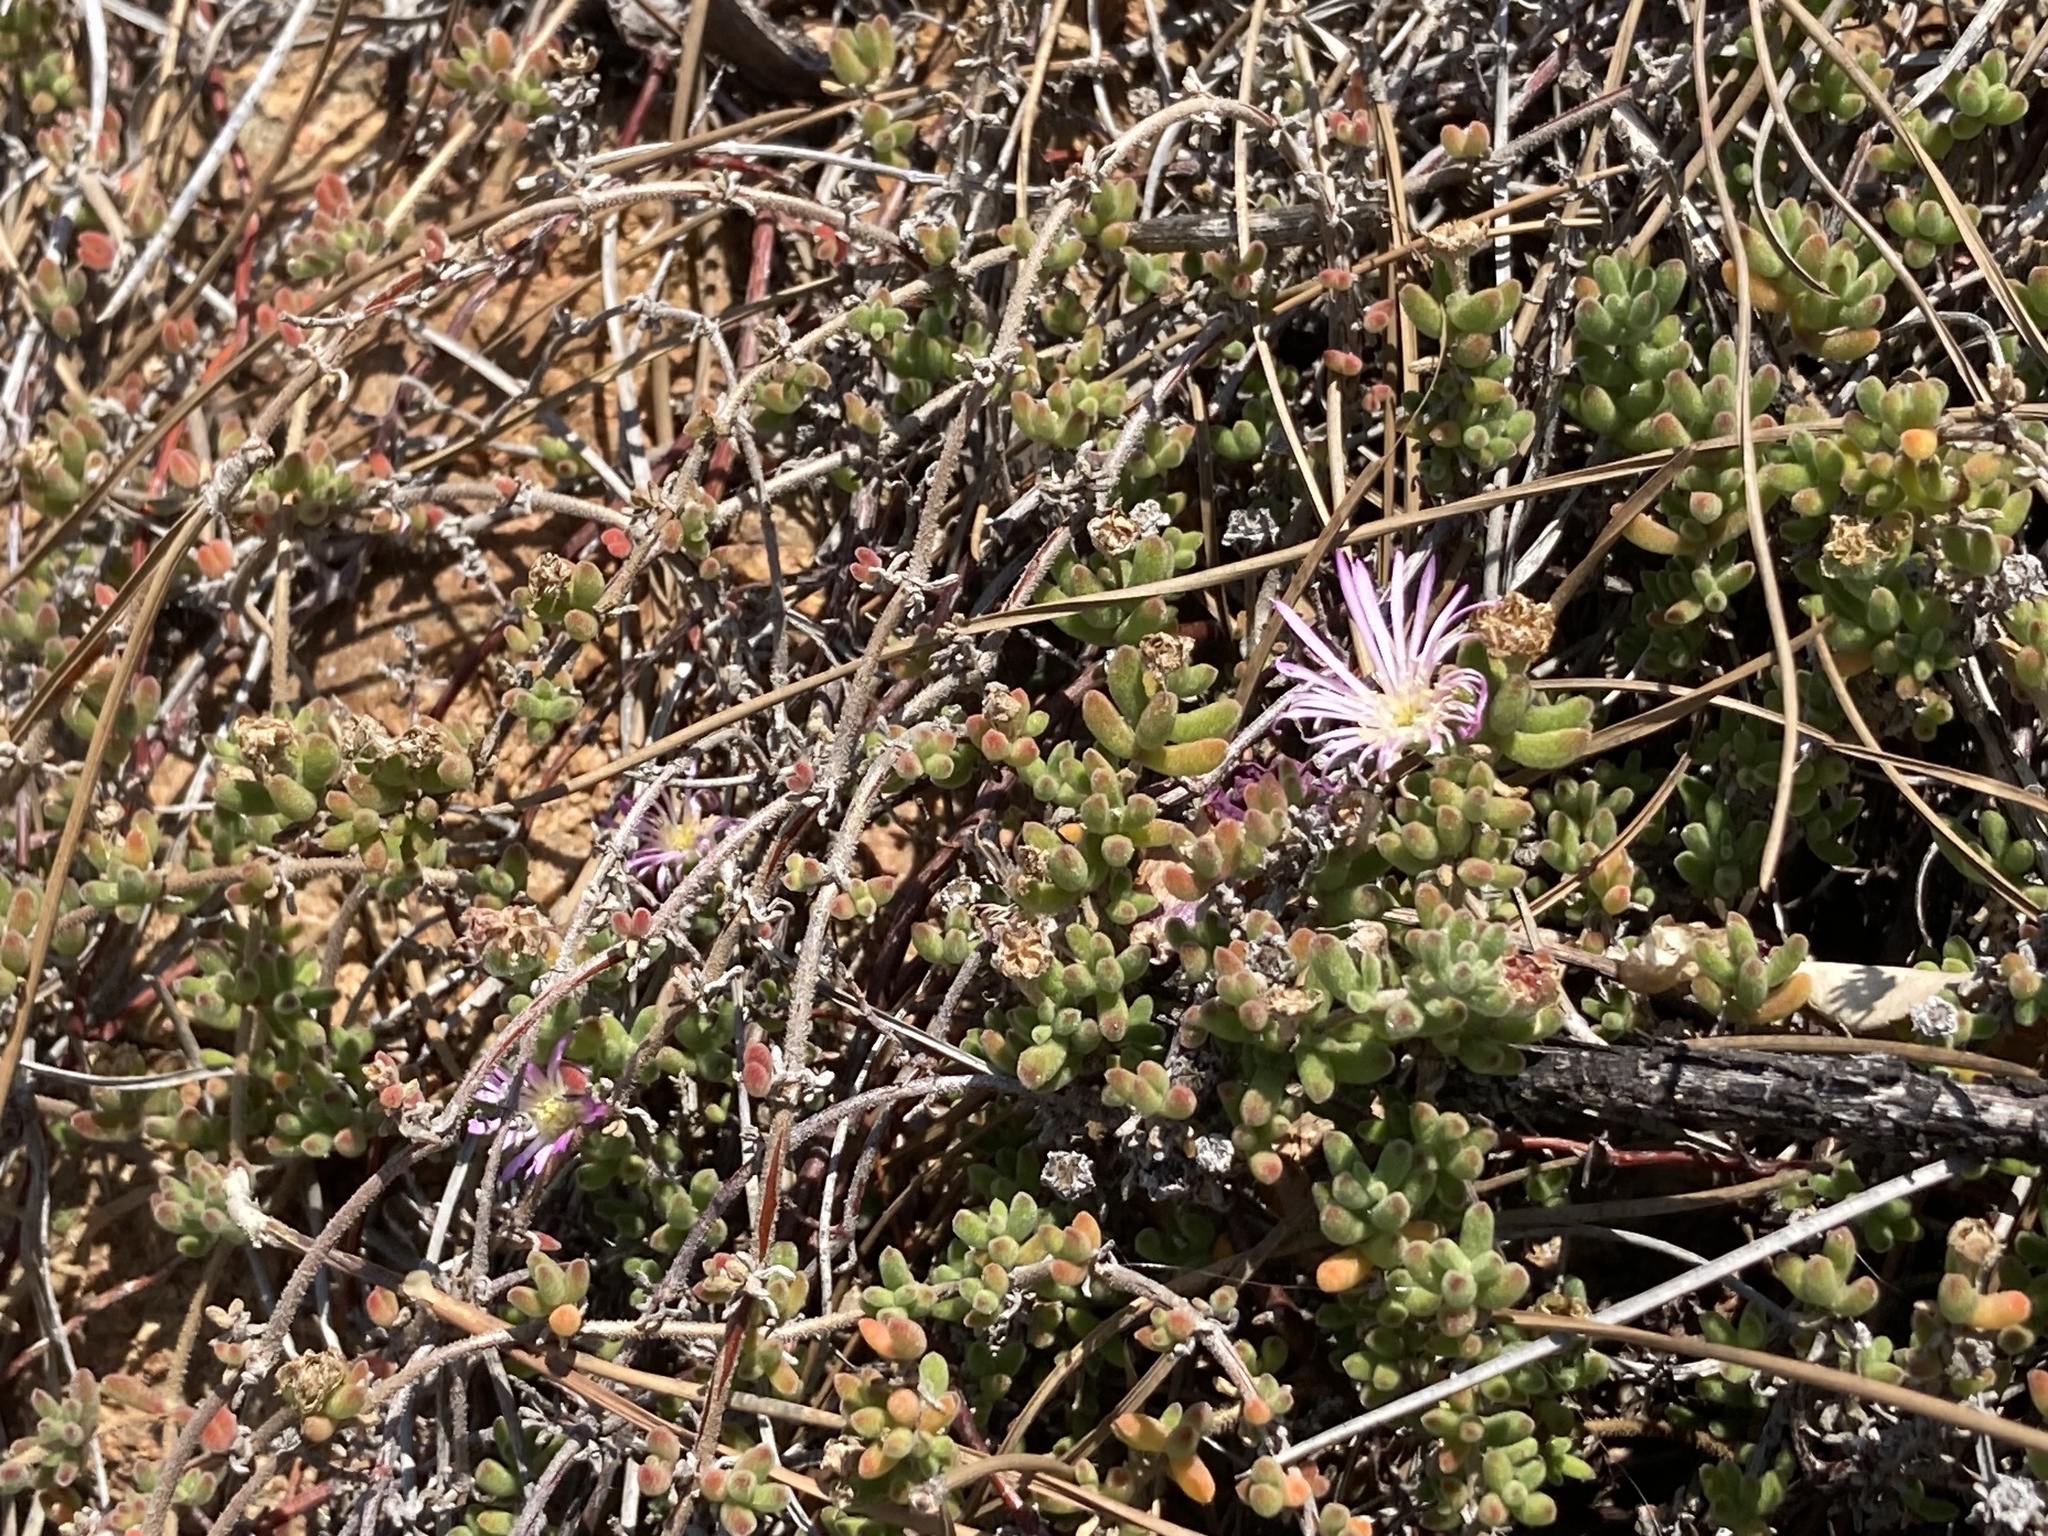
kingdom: Plantae
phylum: Tracheophyta
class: Magnoliopsida
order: Caryophyllales
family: Aizoaceae
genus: Drosanthemum
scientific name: Drosanthemum floribundum
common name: Pale dewplant
